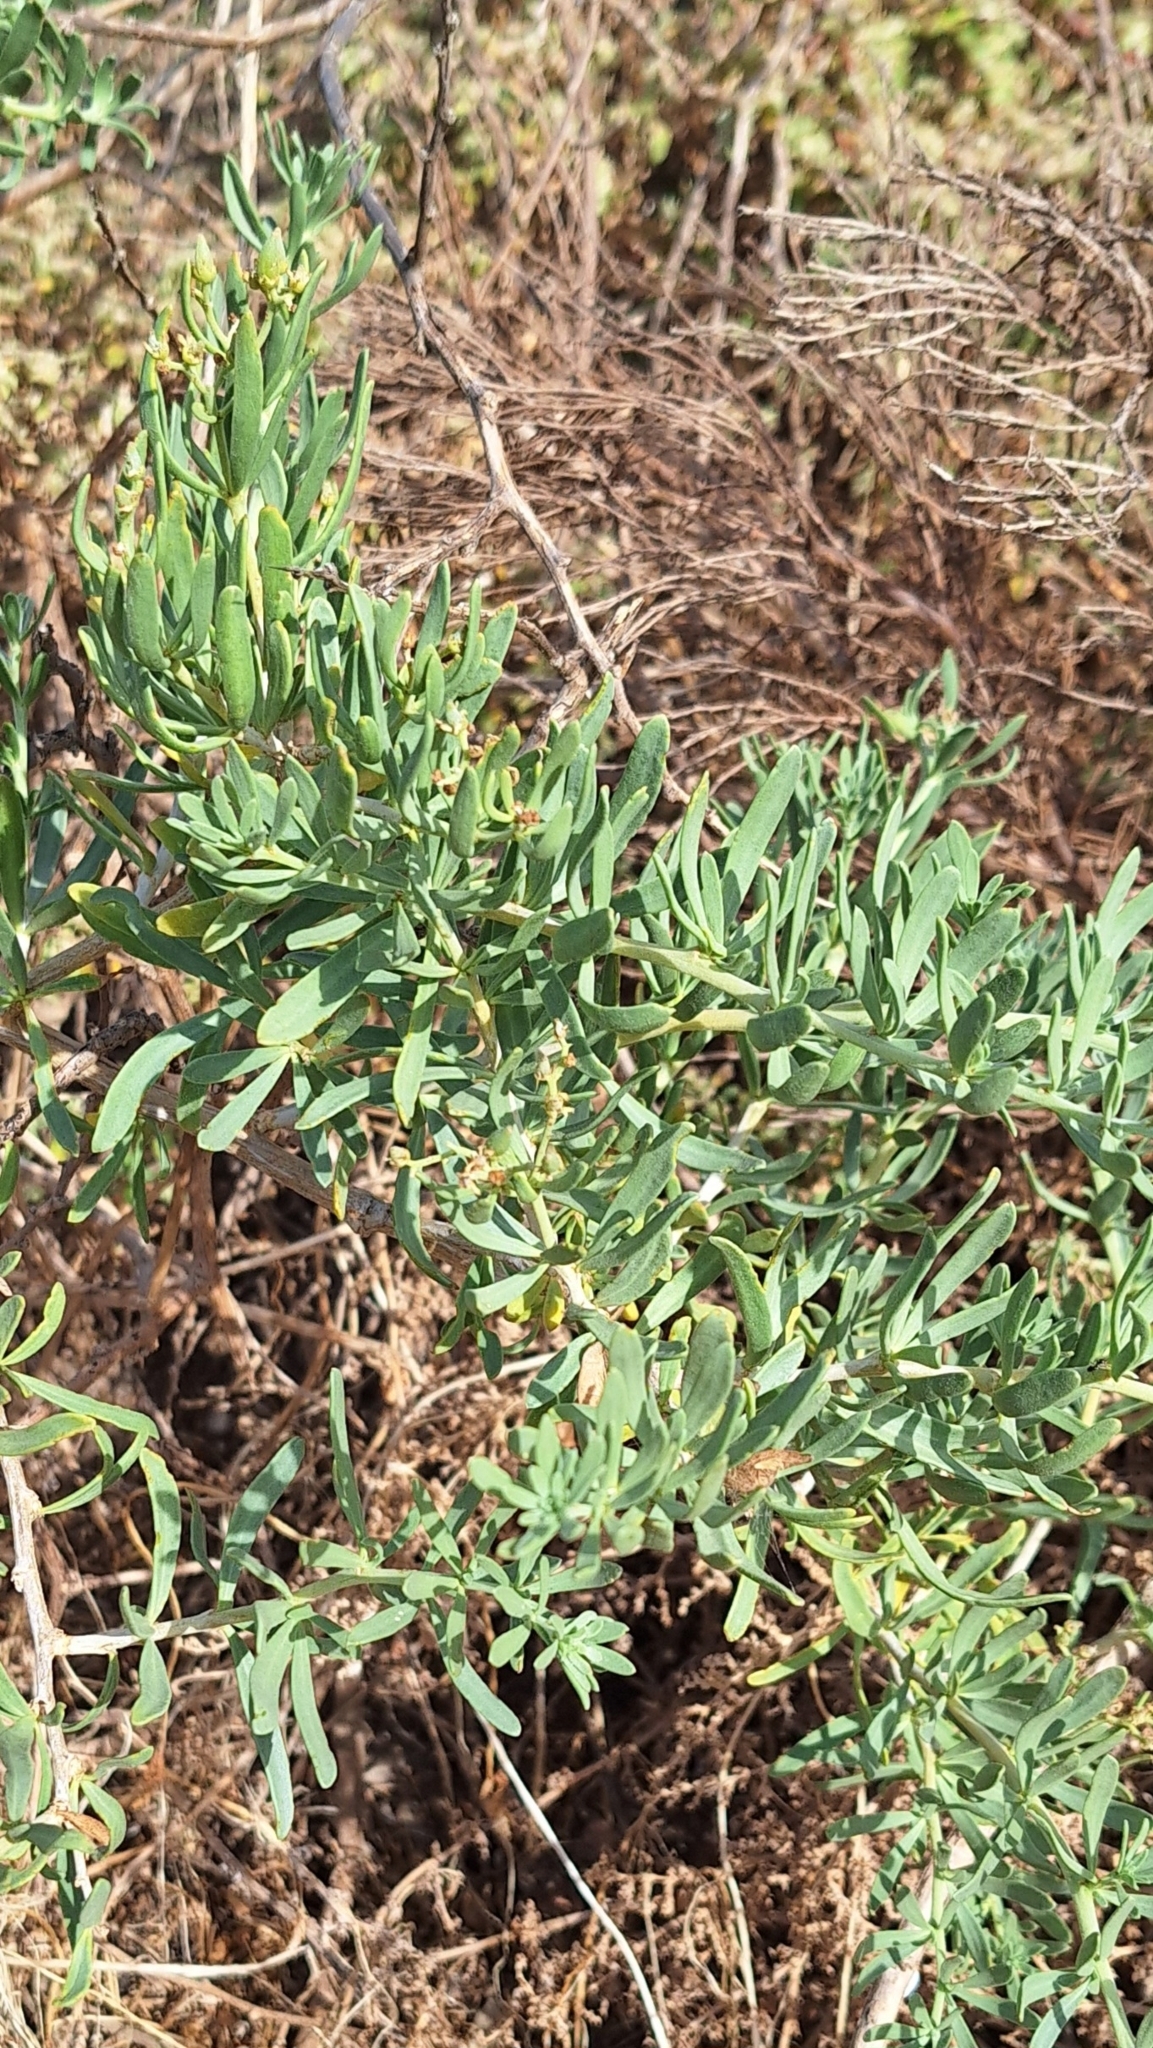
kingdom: Plantae
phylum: Tracheophyta
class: Magnoliopsida
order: Sapindales
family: Nitrariaceae
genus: Nitraria
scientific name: Nitraria billardierei
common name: Dillonbush
